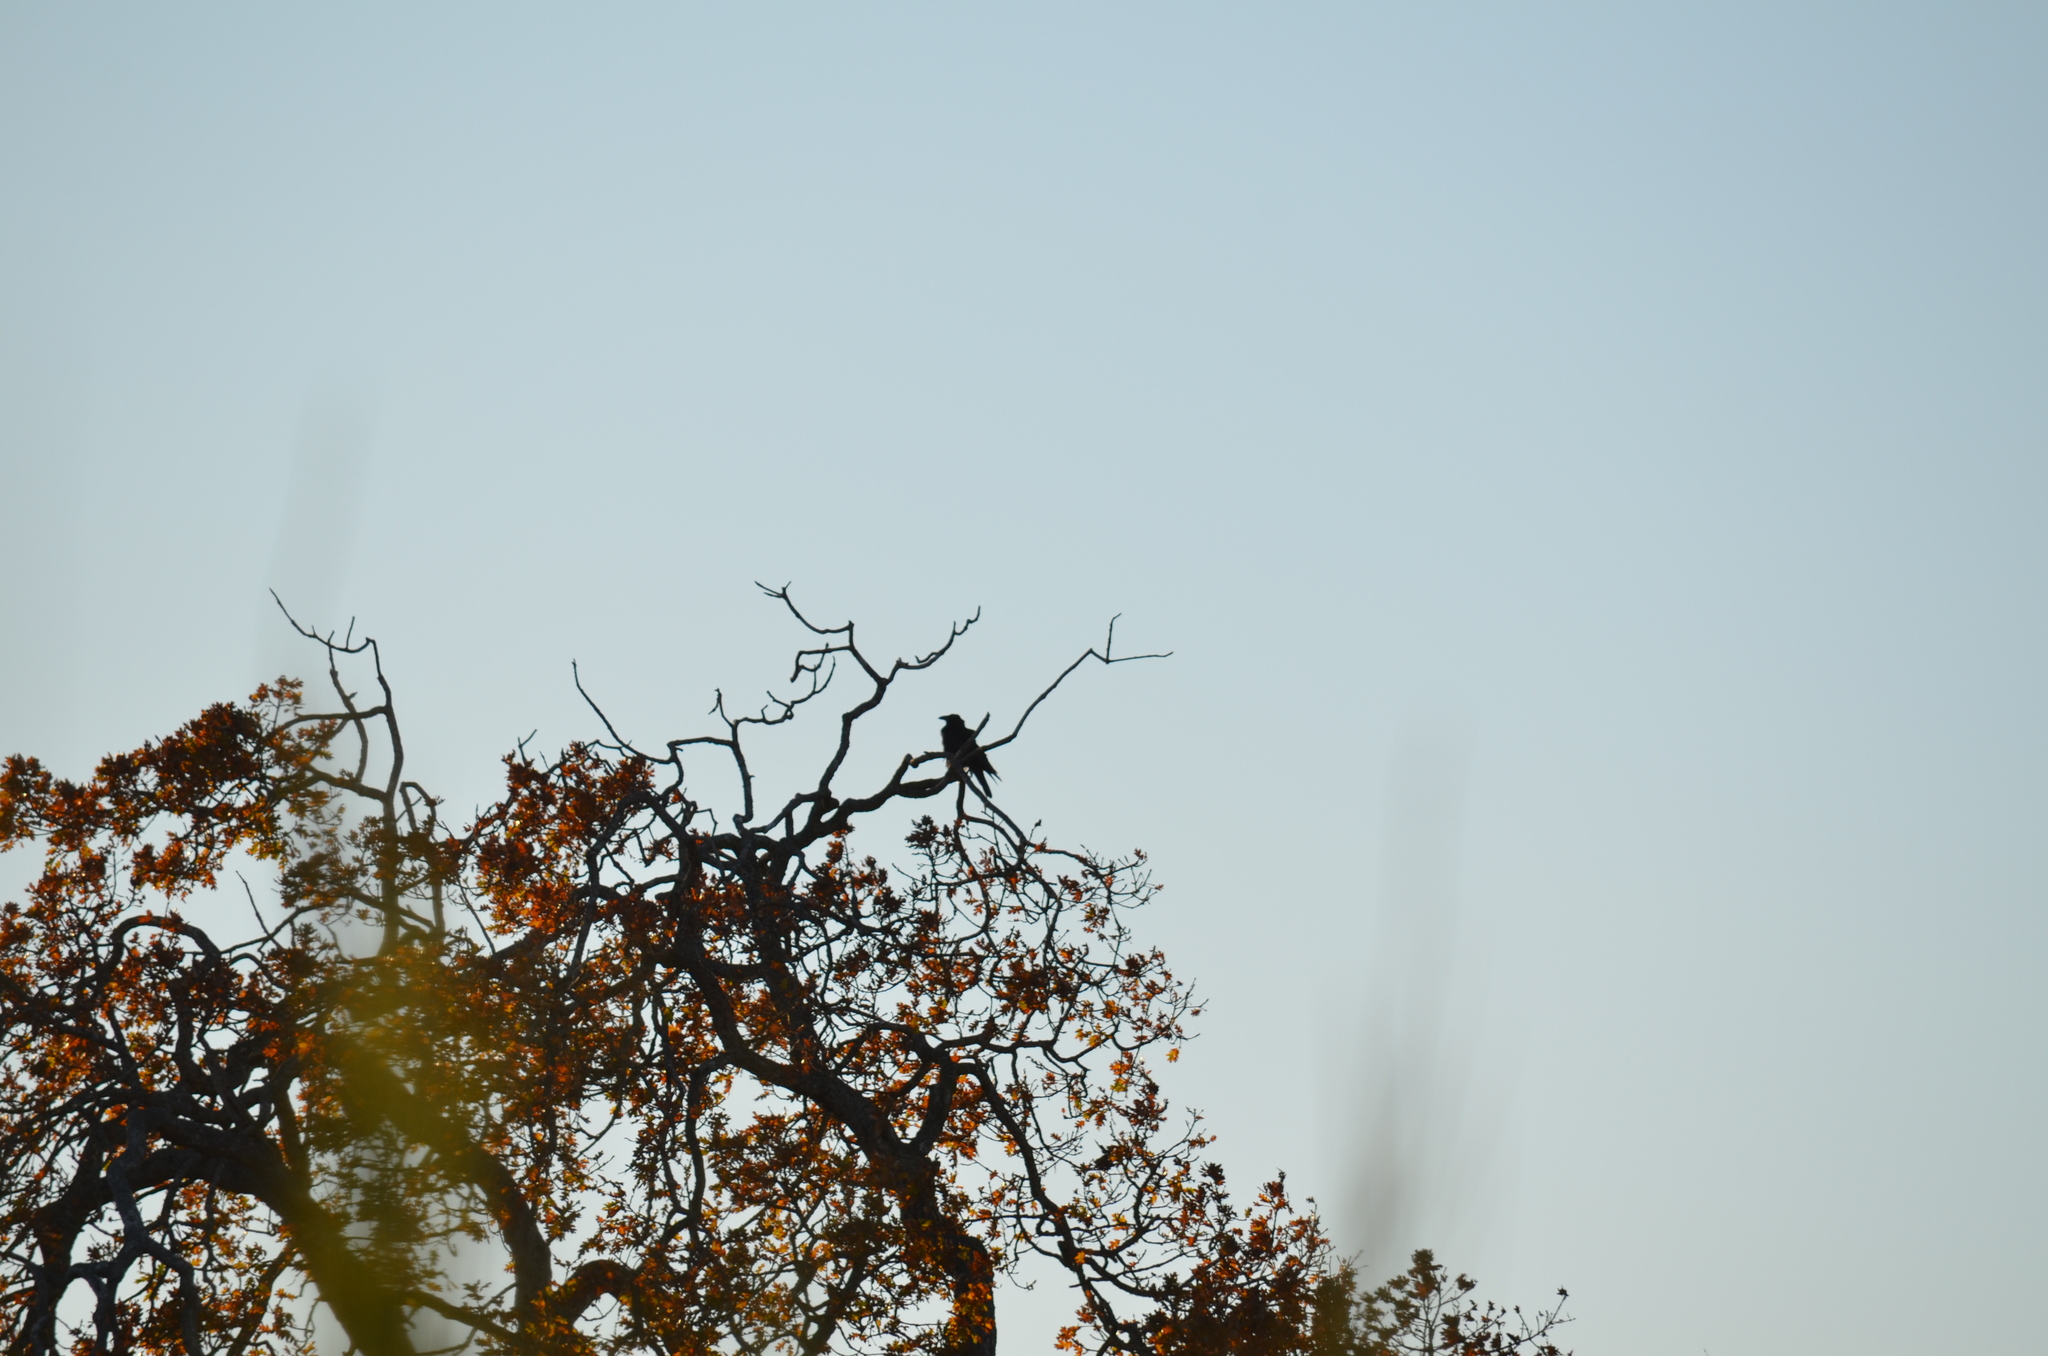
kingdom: Animalia
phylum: Chordata
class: Aves
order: Passeriformes
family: Corvidae
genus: Corvus
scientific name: Corvus corax
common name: Common raven
